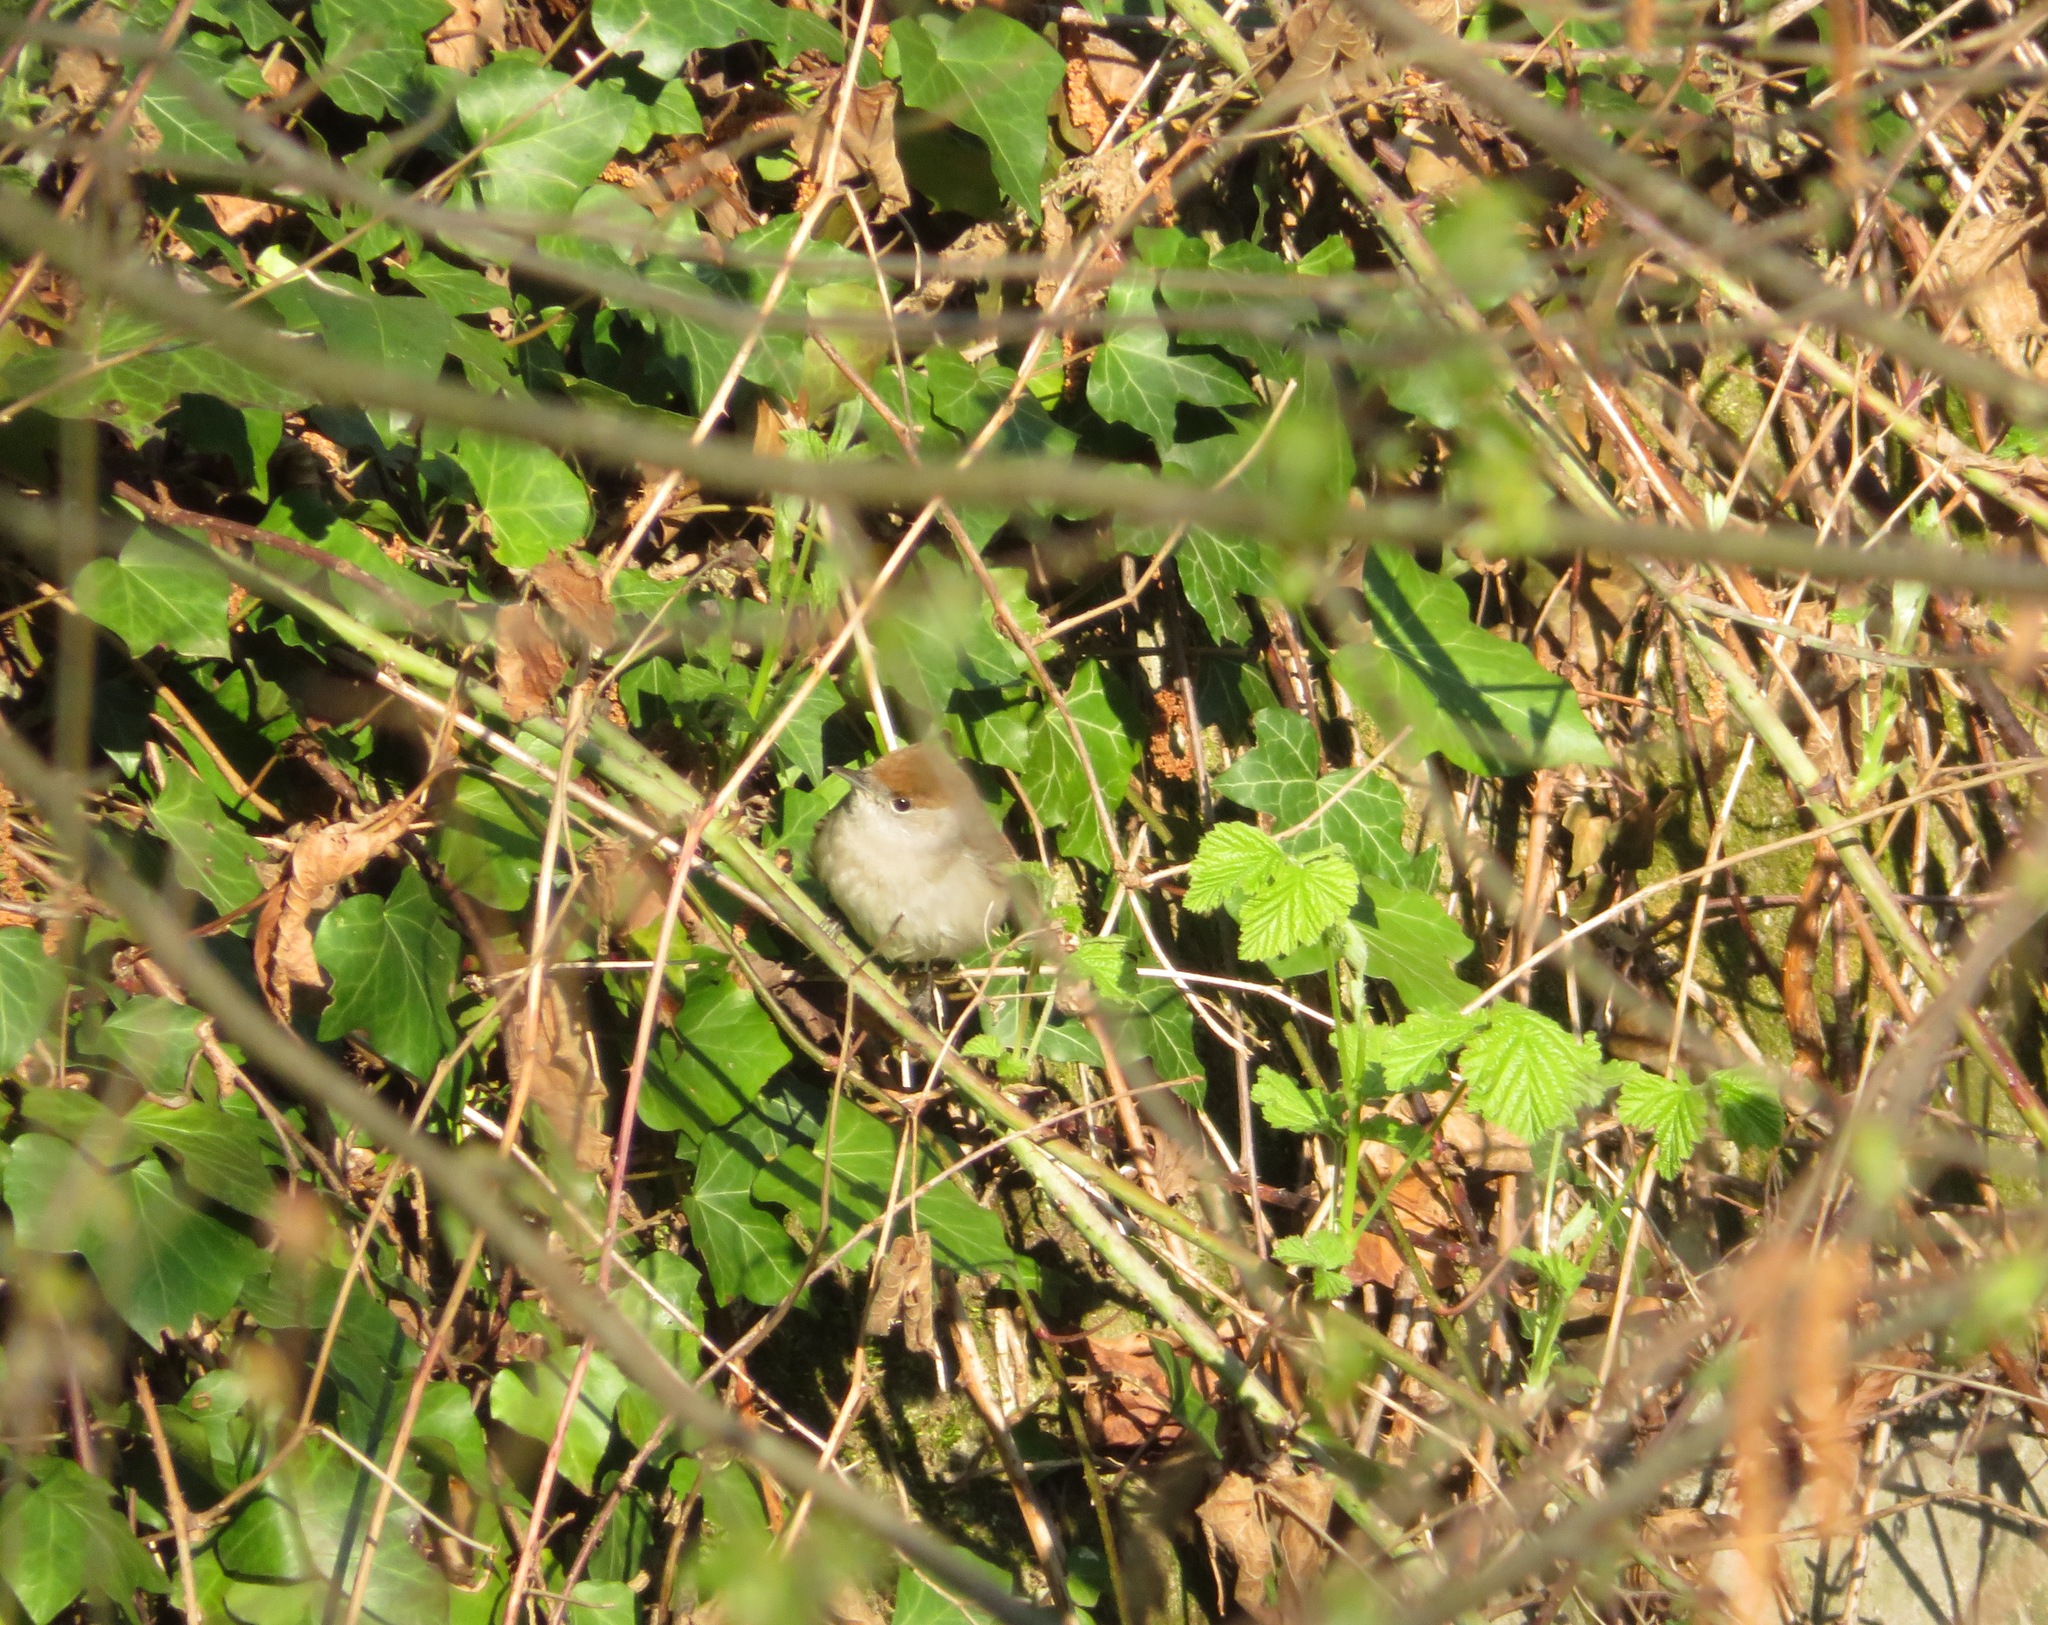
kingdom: Animalia
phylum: Chordata
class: Aves
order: Passeriformes
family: Sylviidae
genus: Sylvia
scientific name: Sylvia atricapilla
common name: Eurasian blackcap
